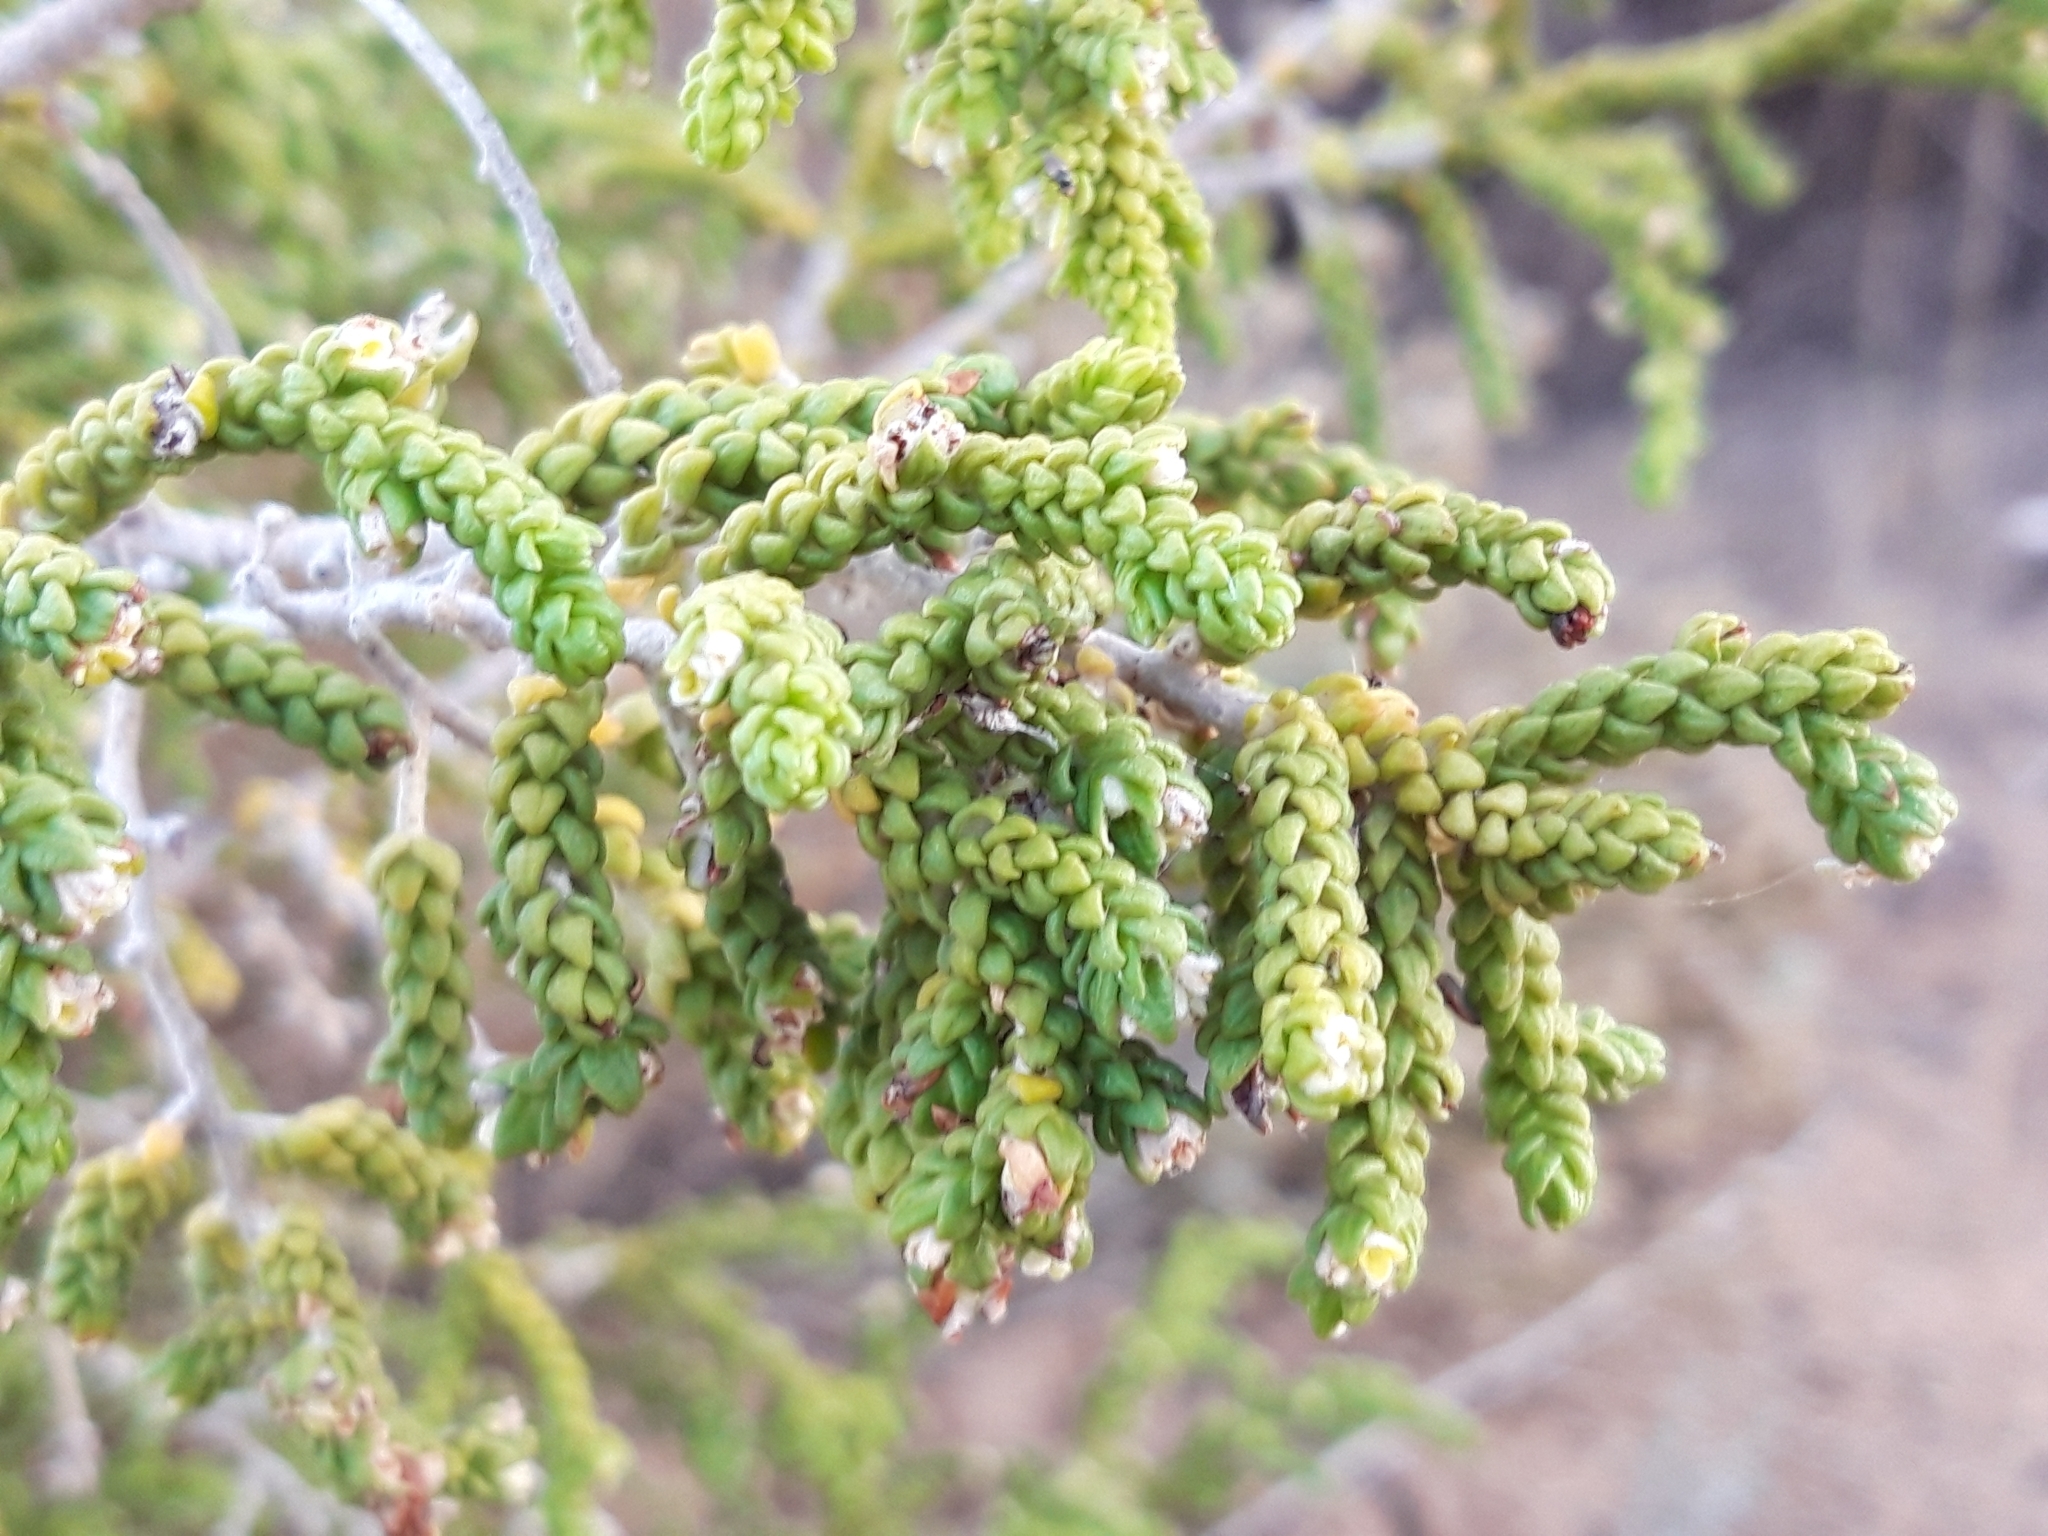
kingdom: Plantae
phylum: Tracheophyta
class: Magnoliopsida
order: Malvales
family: Thymelaeaceae
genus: Thymelaea
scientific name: Thymelaea hirsuta
